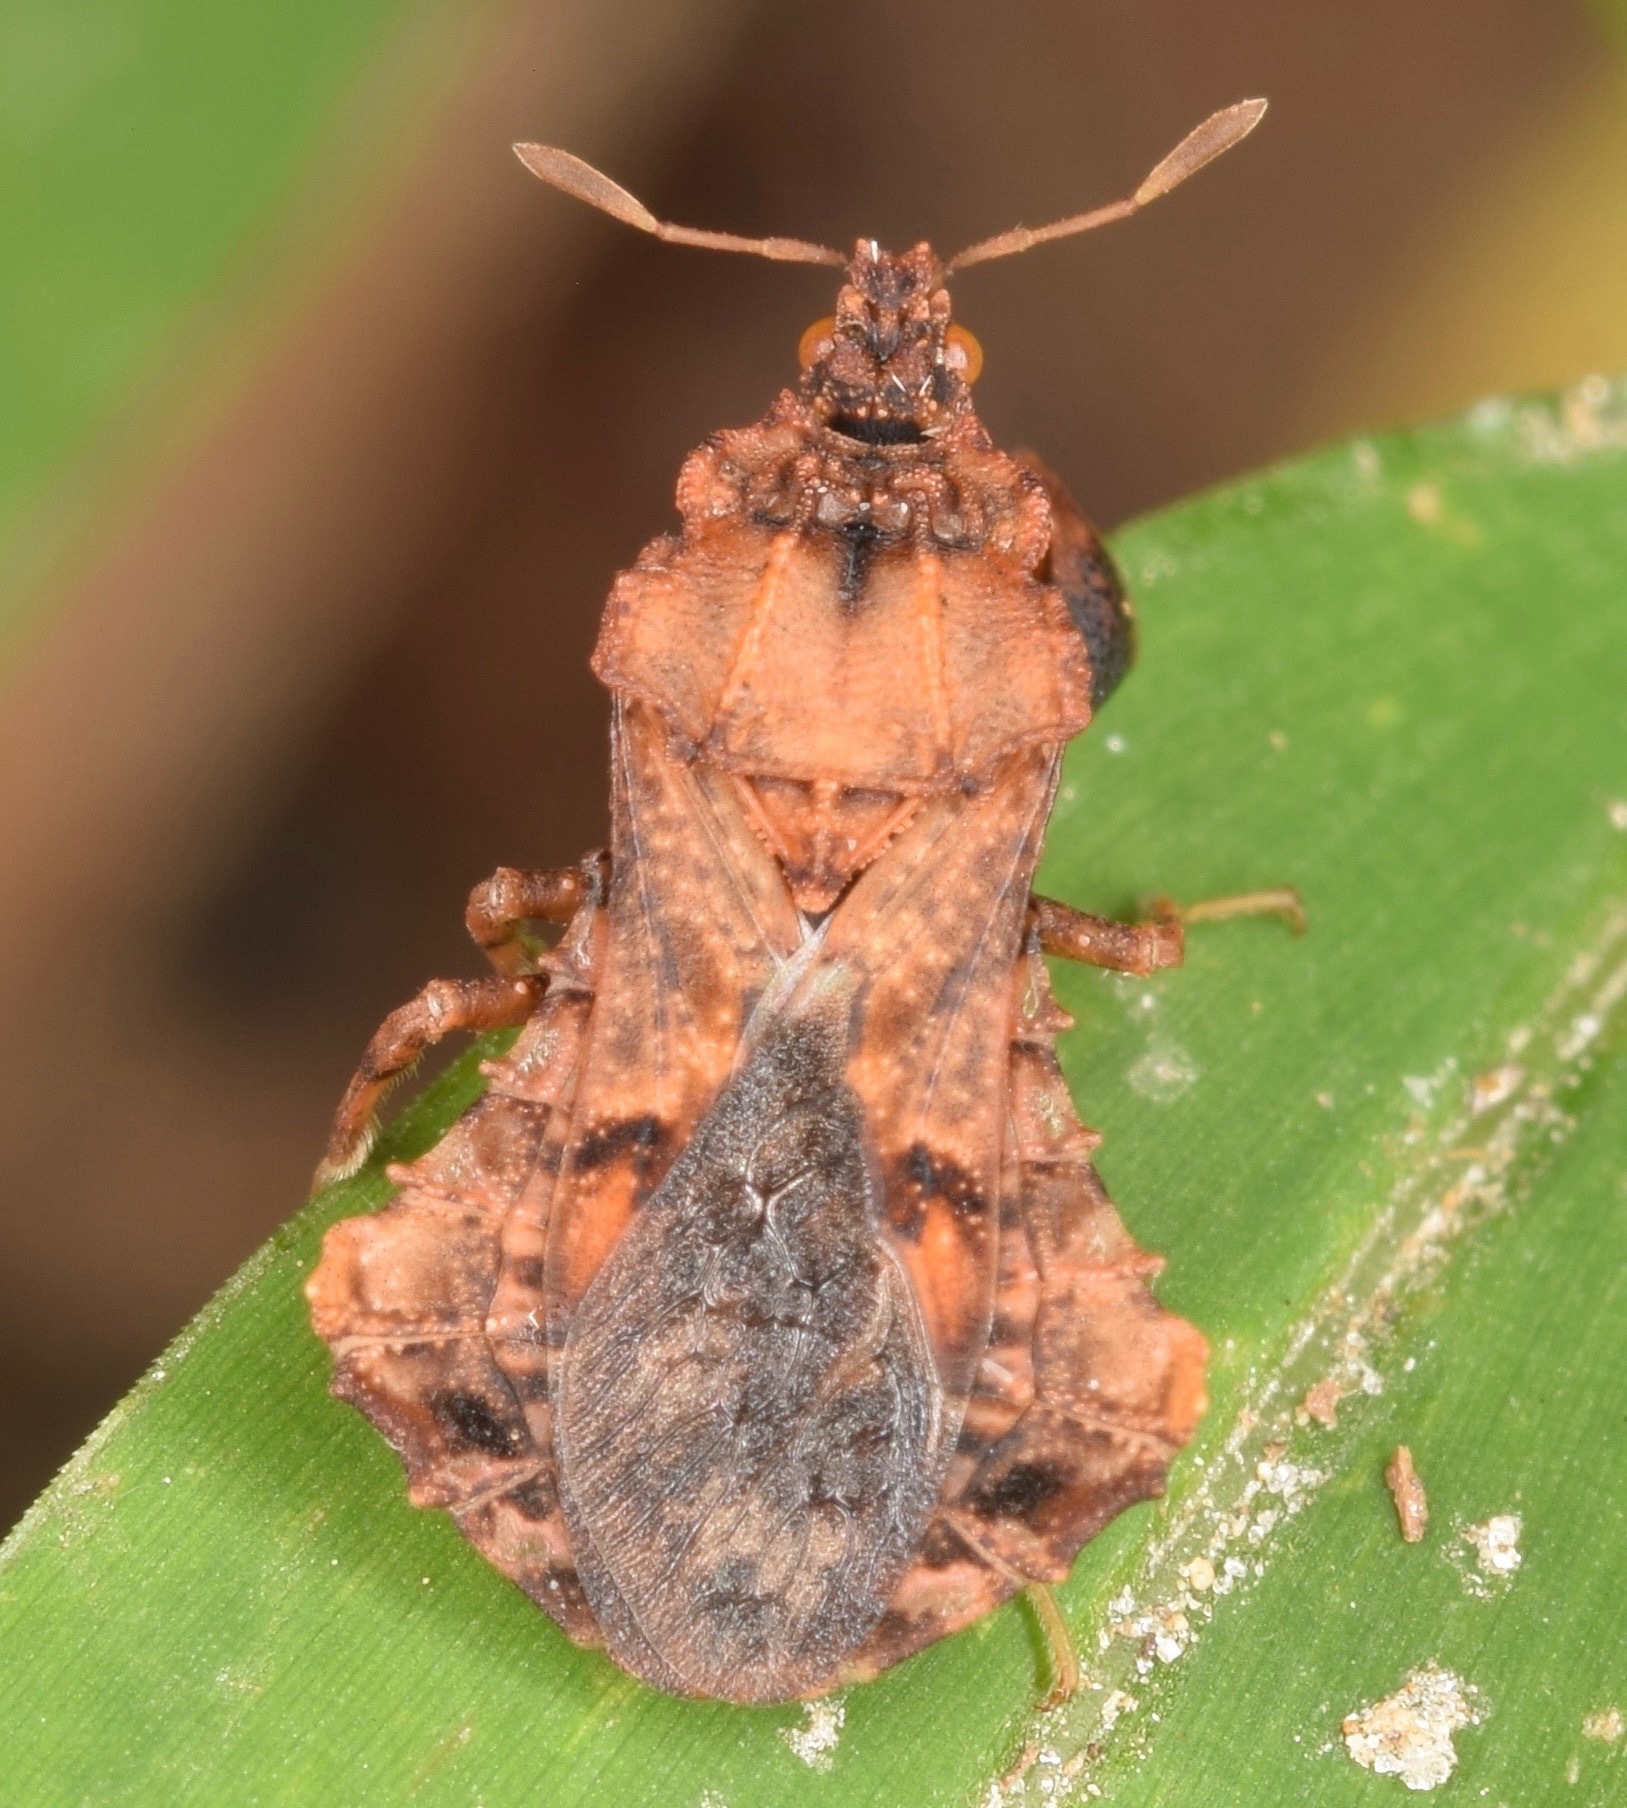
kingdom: Animalia
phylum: Arthropoda
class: Insecta
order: Hemiptera
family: Reduviidae
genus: Phymata
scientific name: Phymata noualhieri
